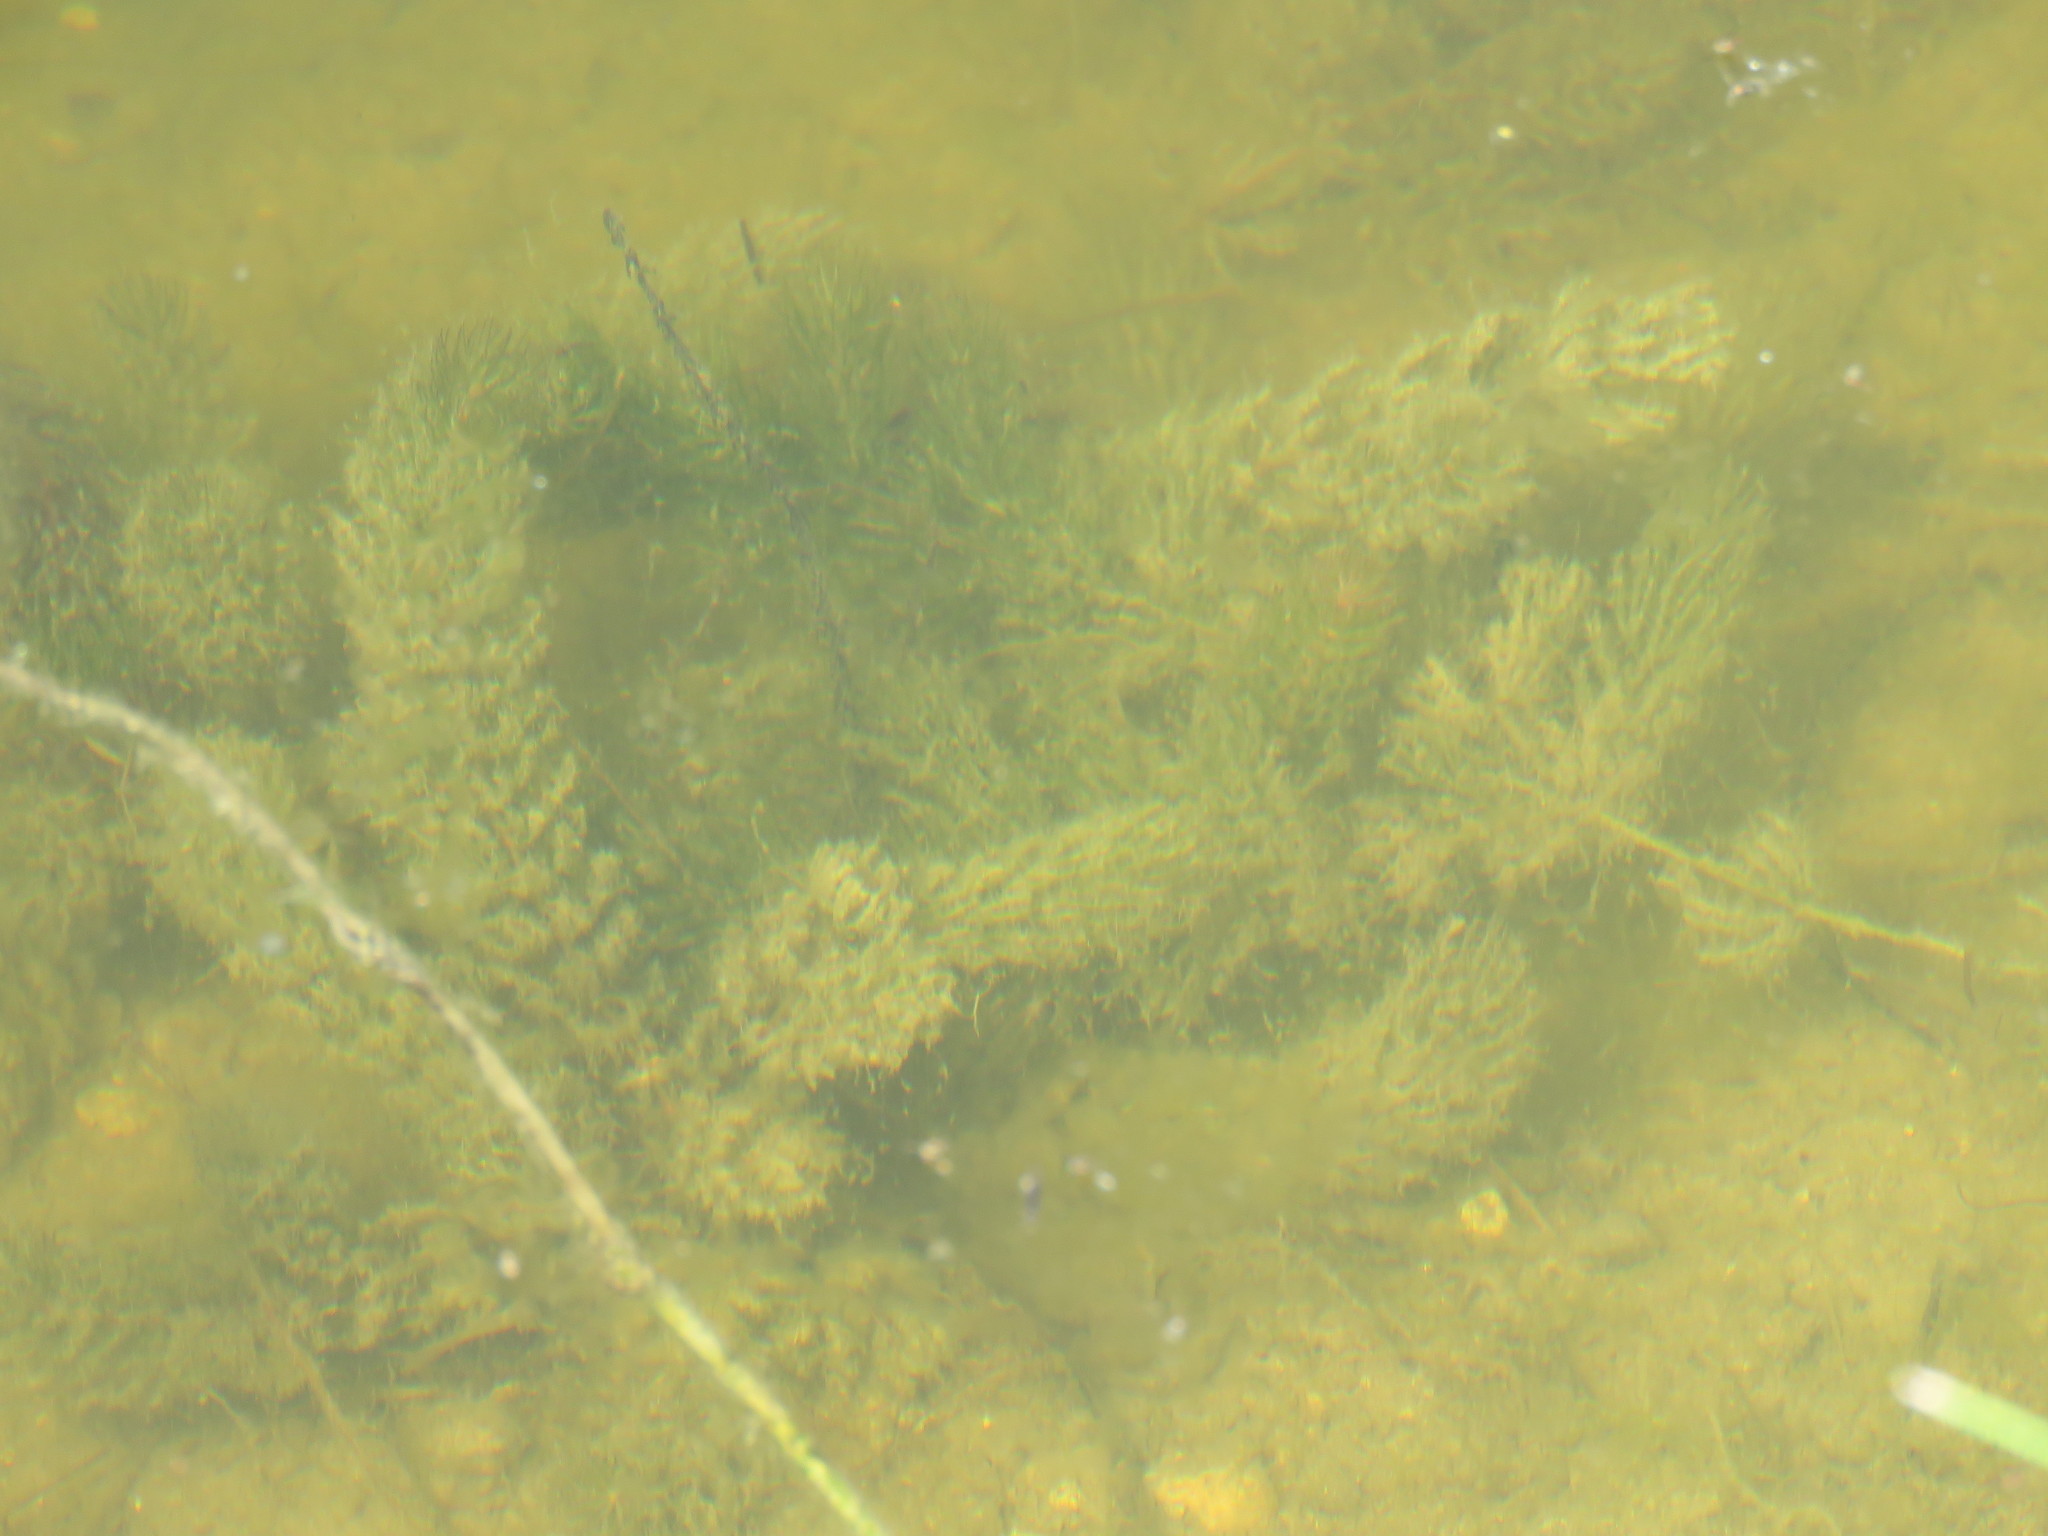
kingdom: Plantae
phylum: Tracheophyta
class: Magnoliopsida
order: Ceratophyllales
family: Ceratophyllaceae
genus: Ceratophyllum
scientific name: Ceratophyllum demersum
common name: Rigid hornwort
